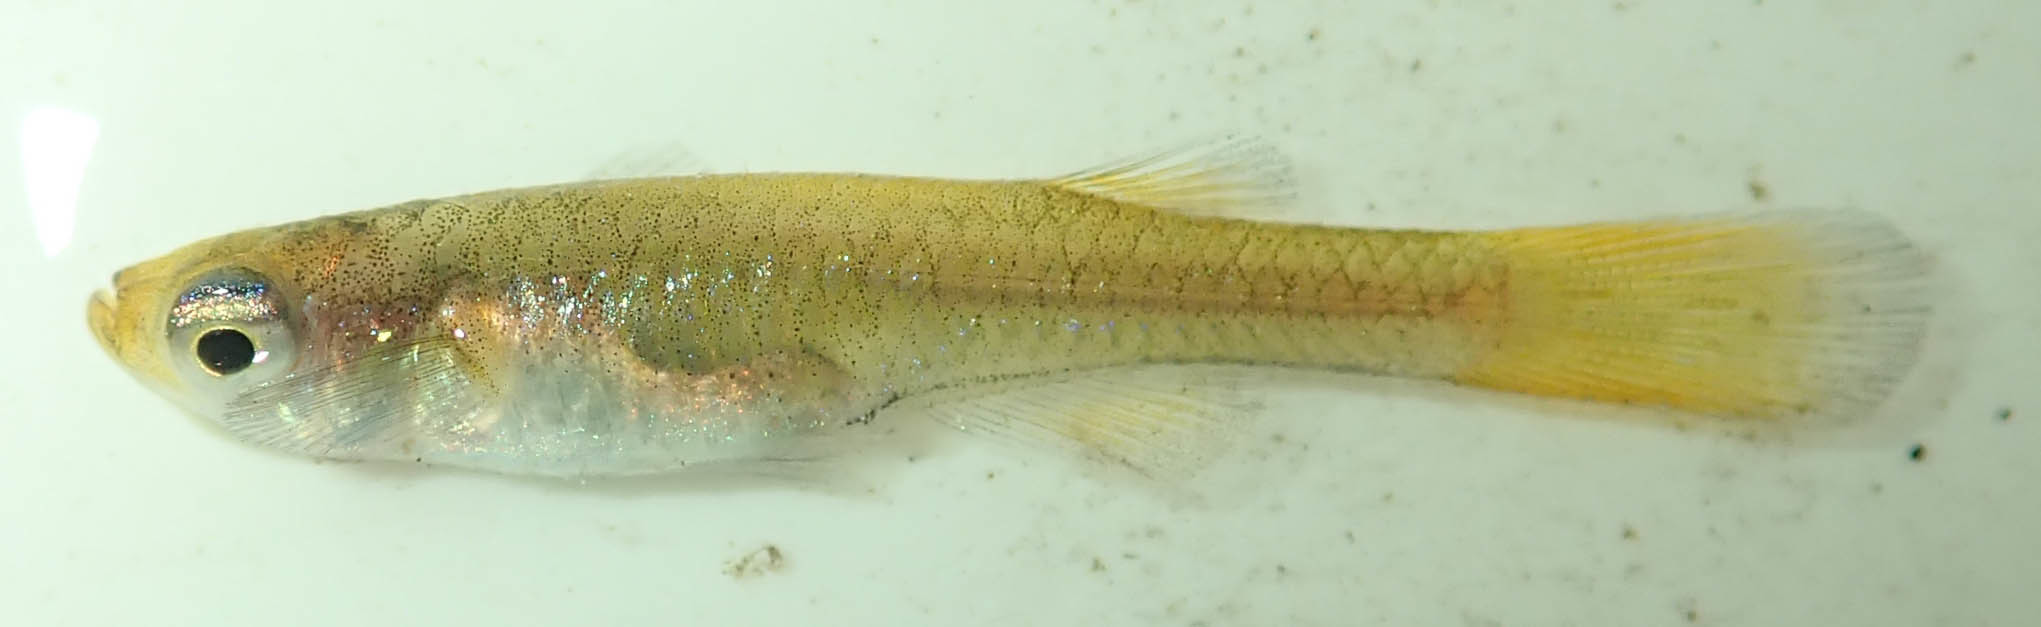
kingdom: Animalia
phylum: Chordata
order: Cyprinodontiformes
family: Poeciliidae
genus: Micropanchax
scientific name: Micropanchax johnstoni
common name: Johnston's topminnow
